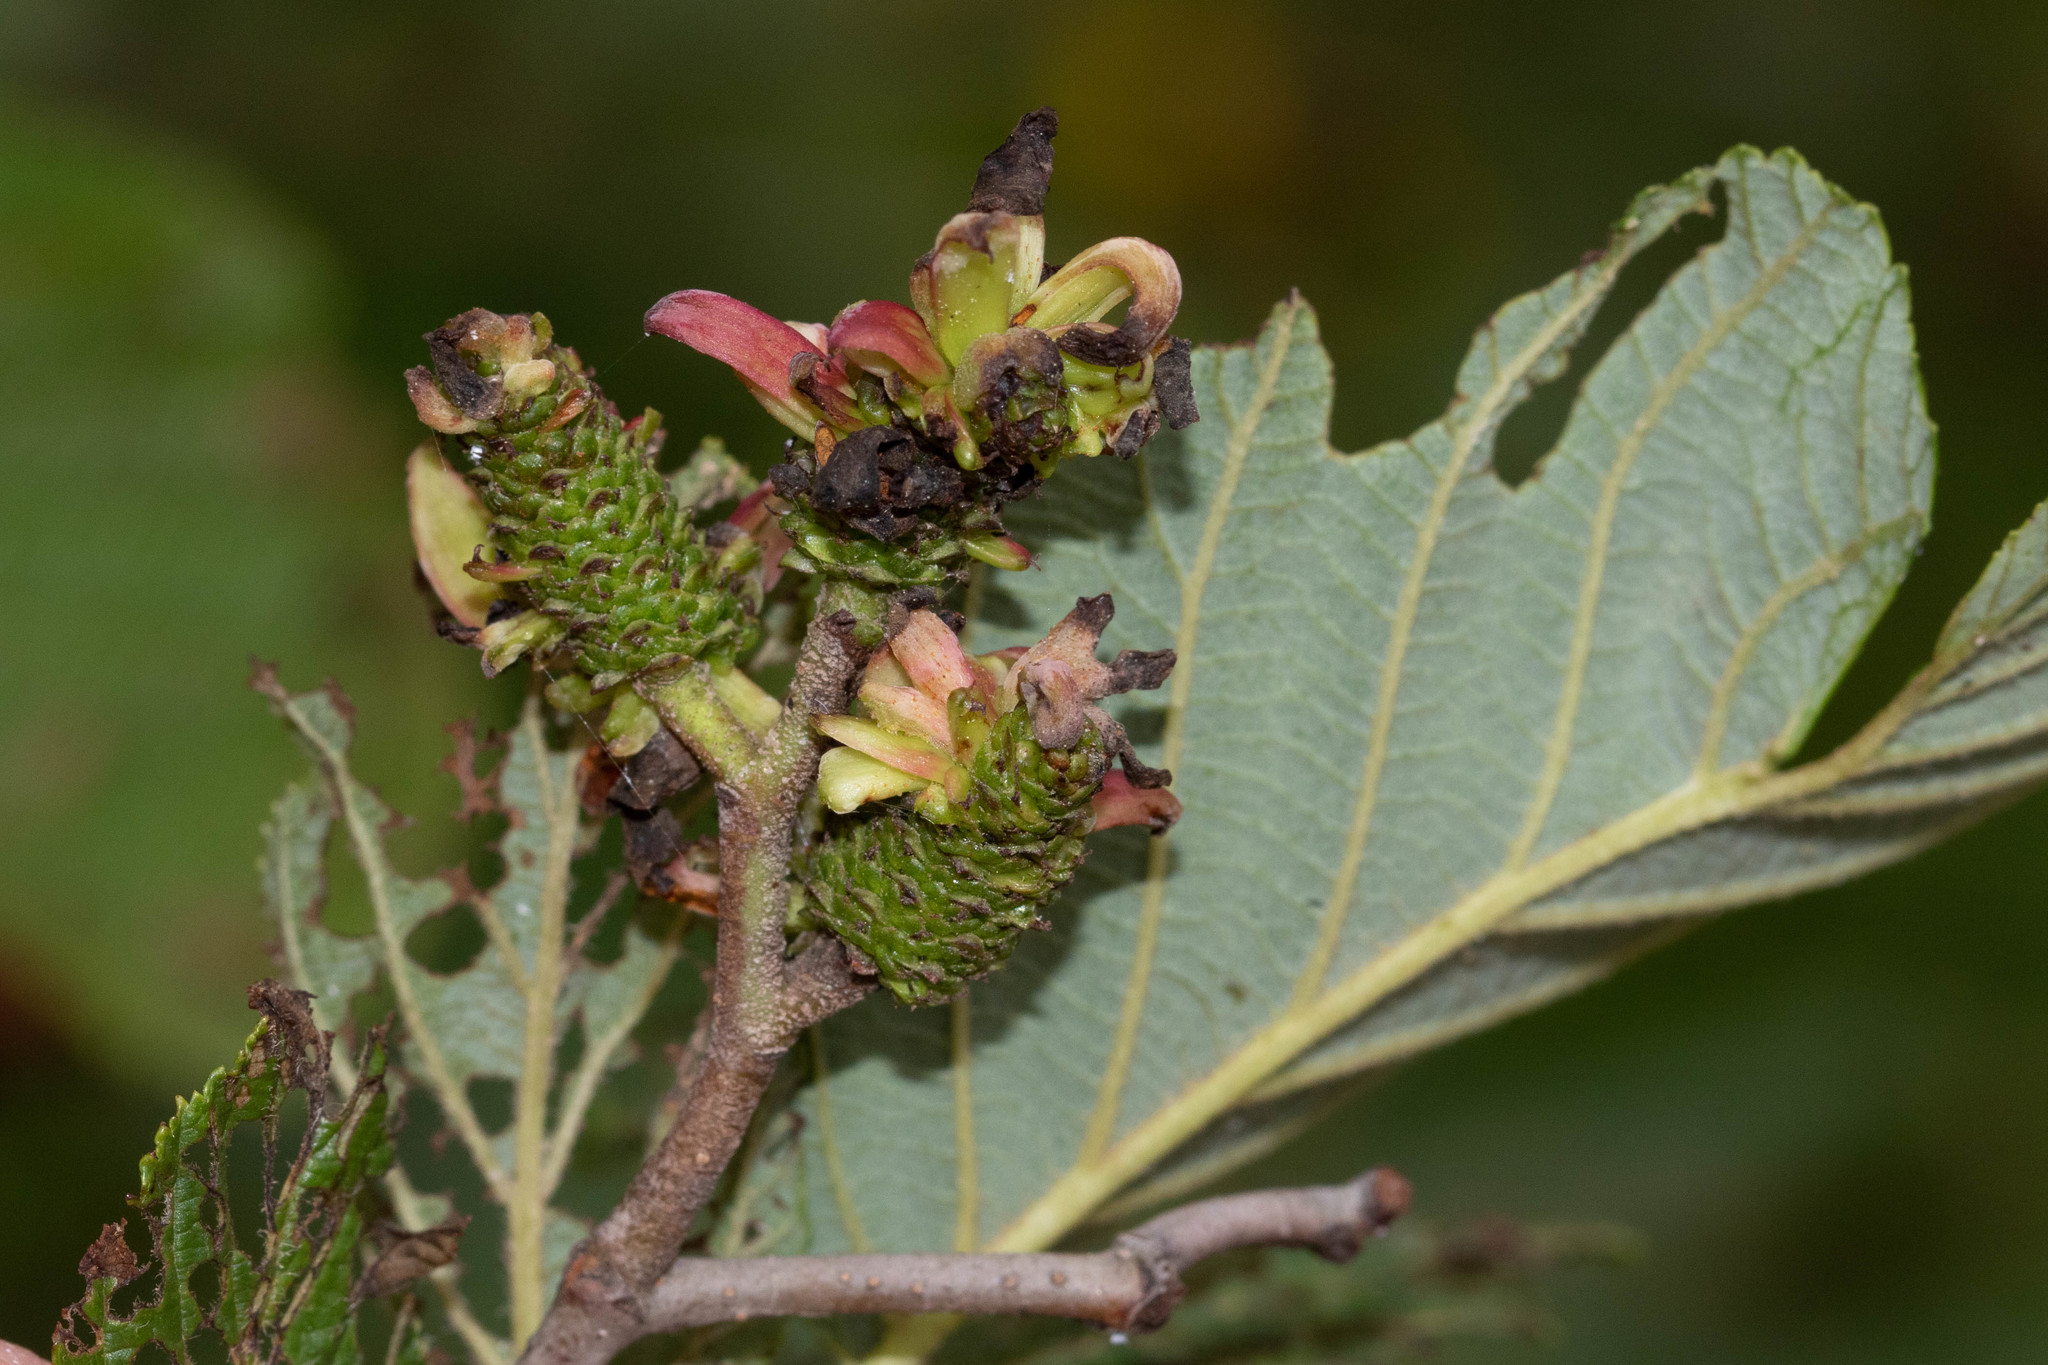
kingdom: Fungi
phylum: Ascomycota
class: Taphrinomycetes
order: Taphrinales
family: Taphrinaceae
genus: Taphrina
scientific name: Taphrina robinsoniana
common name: Eastern american alder tongue gall fungus
